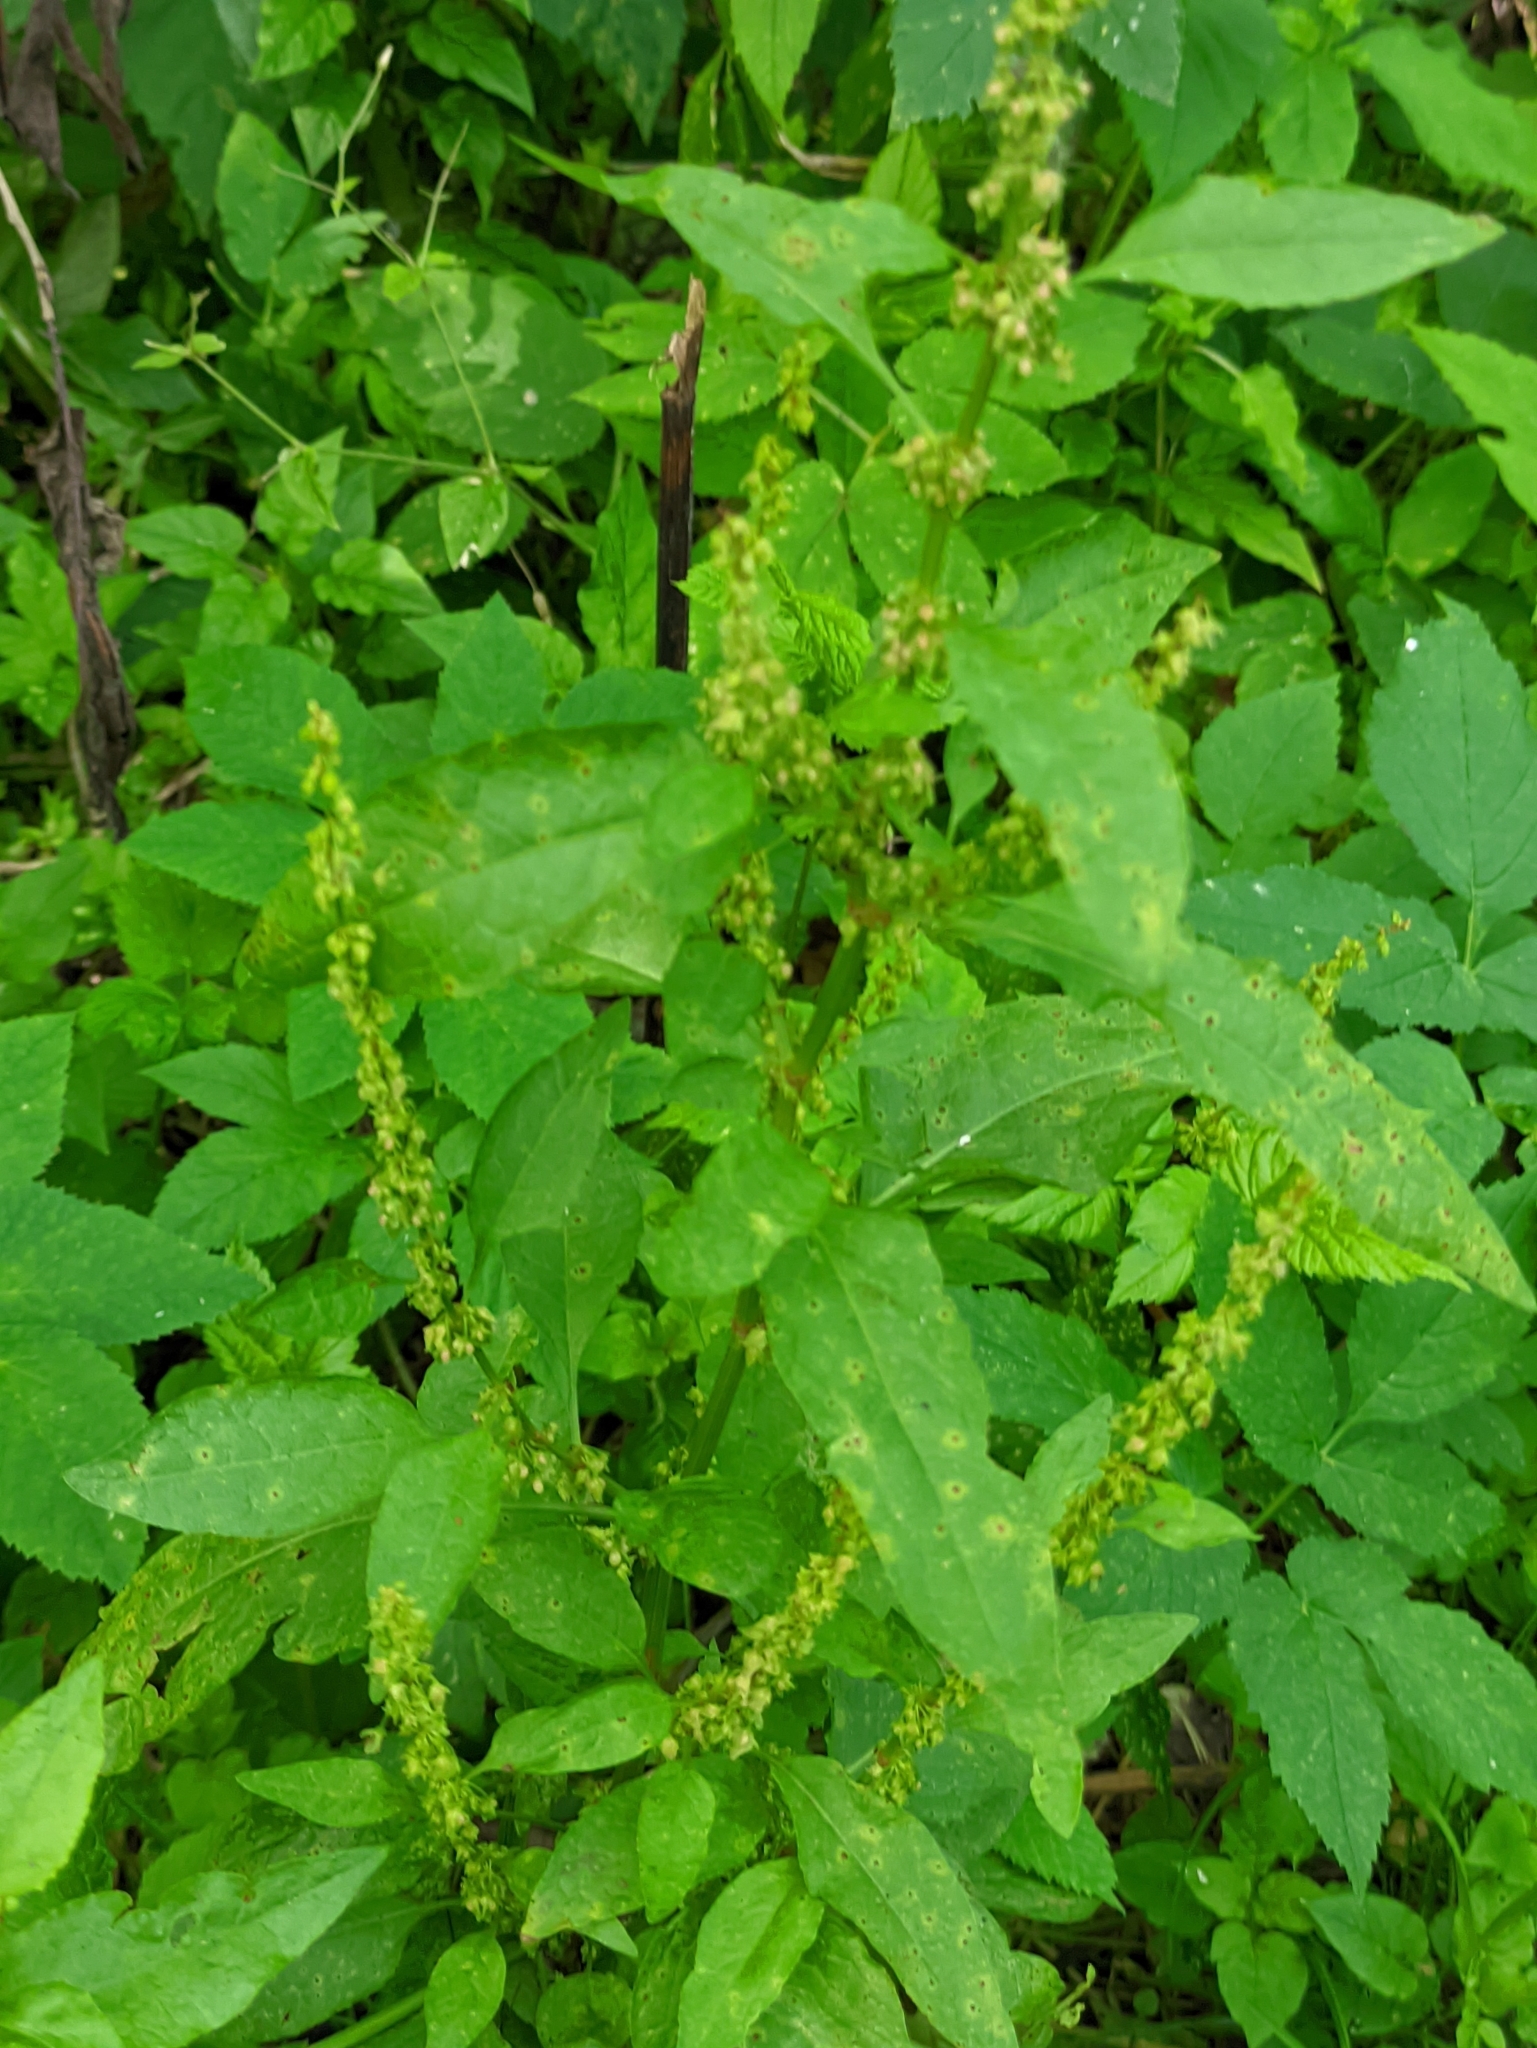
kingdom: Plantae
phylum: Tracheophyta
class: Magnoliopsida
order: Caryophyllales
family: Polygonaceae
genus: Rumex
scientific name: Rumex obtusifolius
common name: Bitter dock
